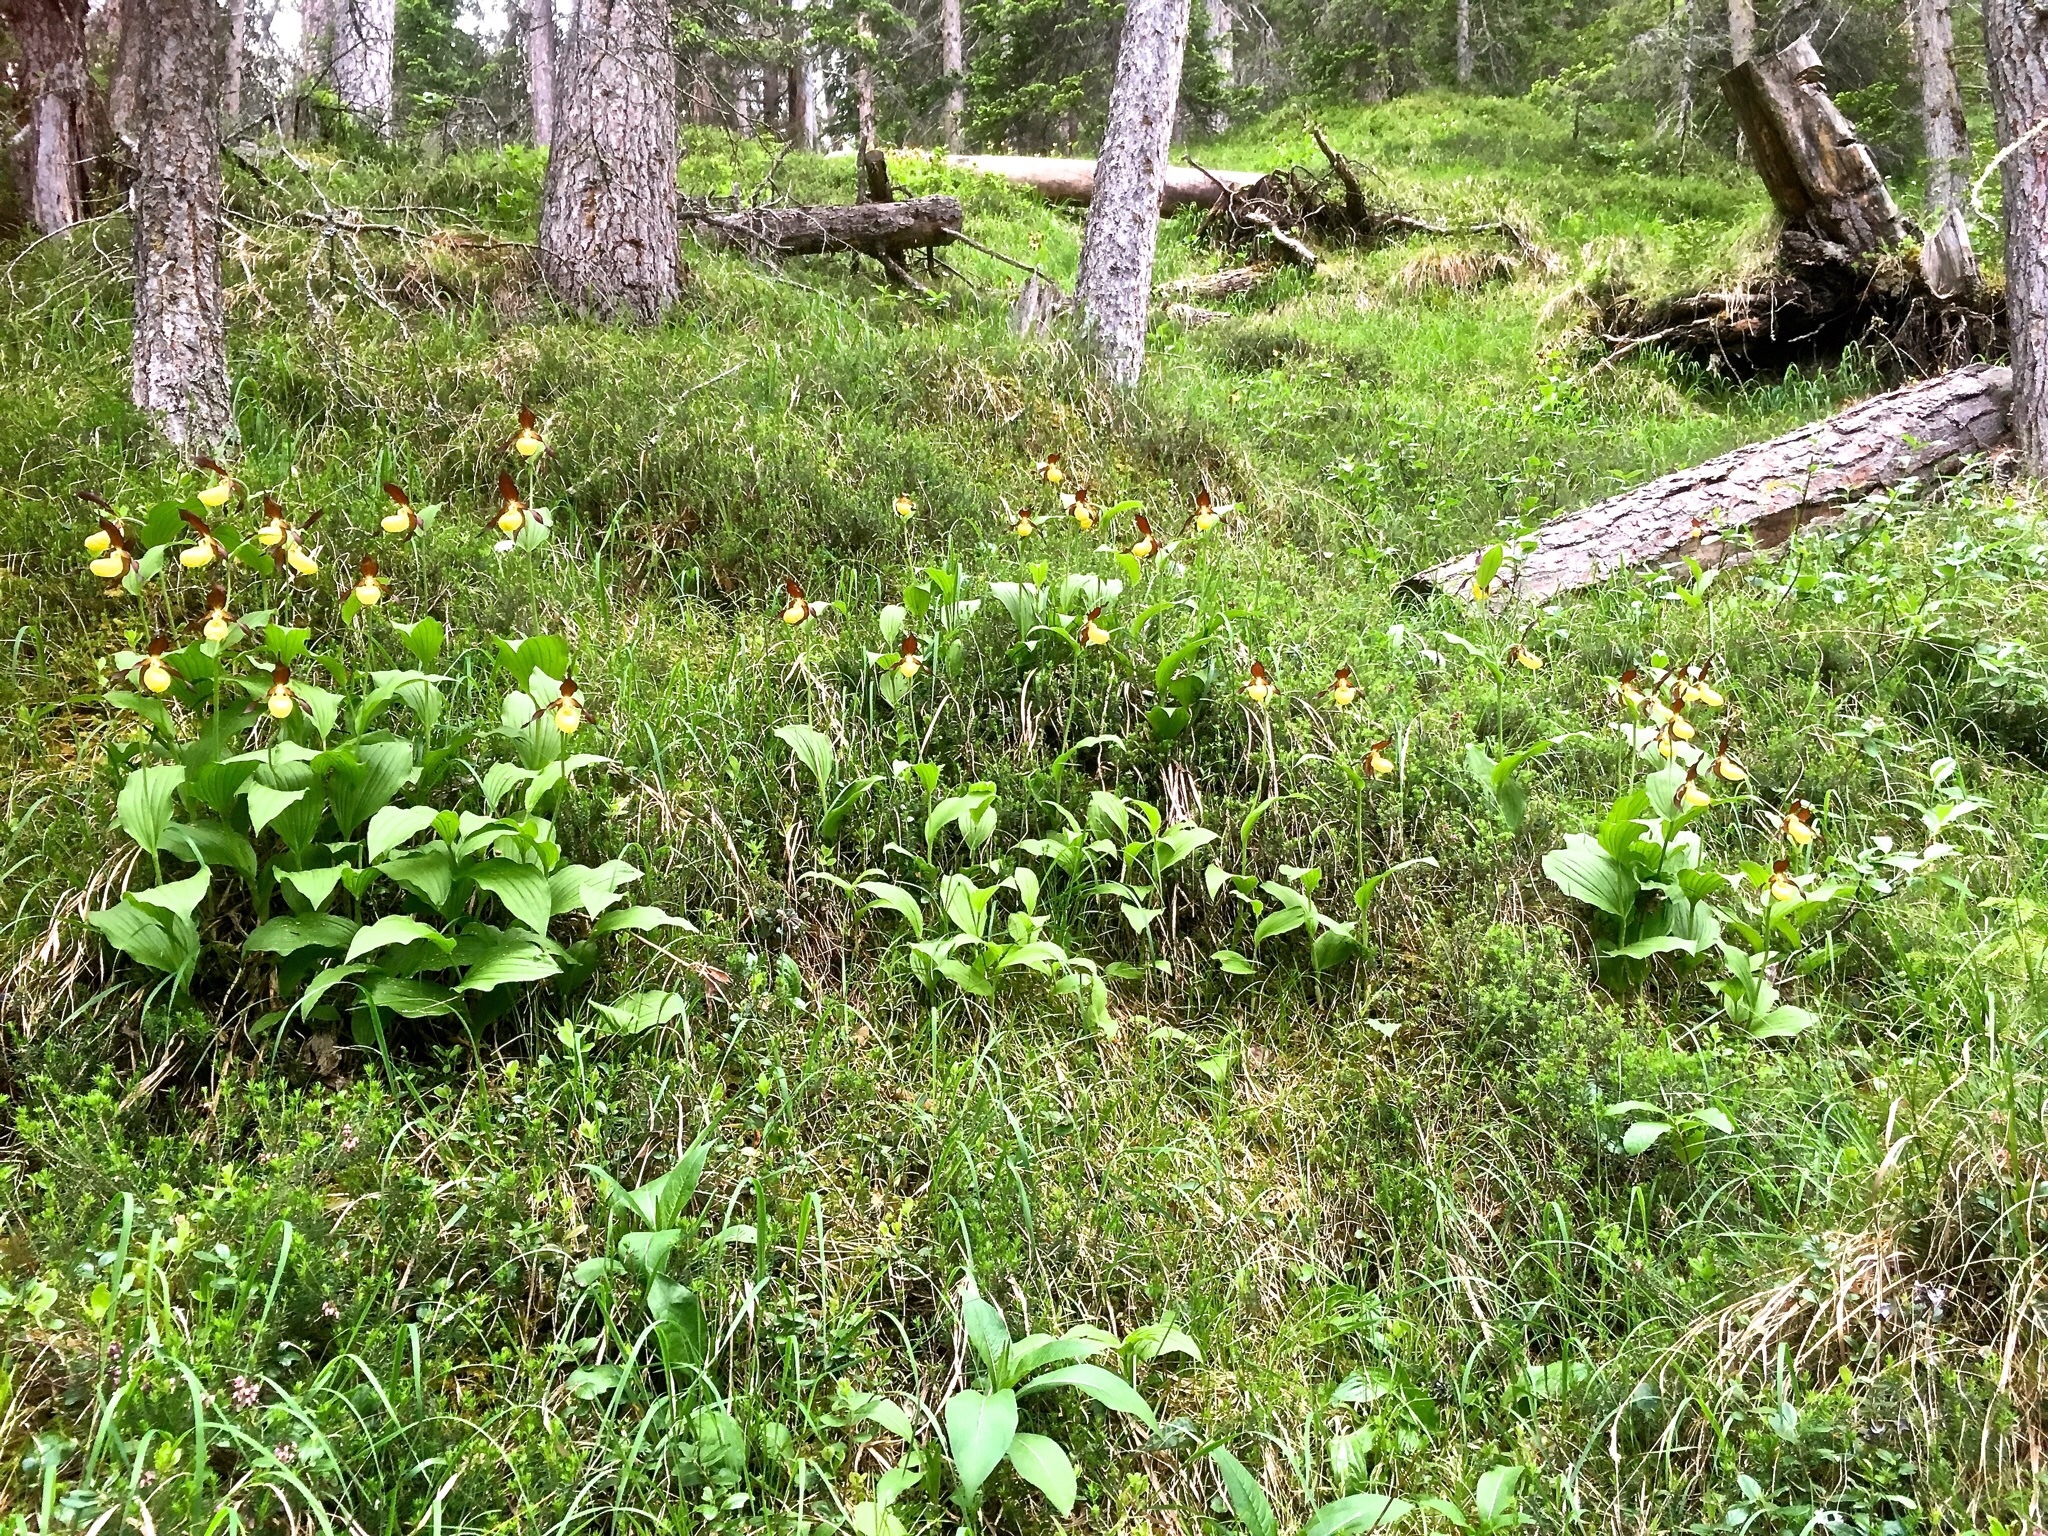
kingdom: Plantae
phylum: Tracheophyta
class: Liliopsida
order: Asparagales
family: Orchidaceae
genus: Cypripedium
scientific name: Cypripedium calceolus
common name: Lady's-slipper
